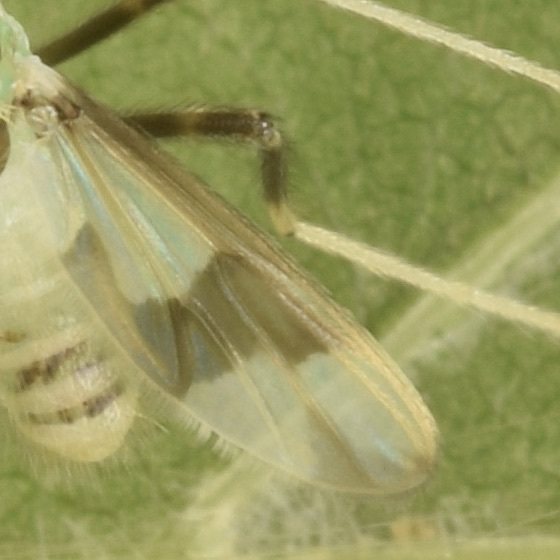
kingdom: Animalia
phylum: Arthropoda
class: Insecta
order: Diptera
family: Chironomidae
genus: Stenochironomus
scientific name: Stenochironomus poecilopterus
